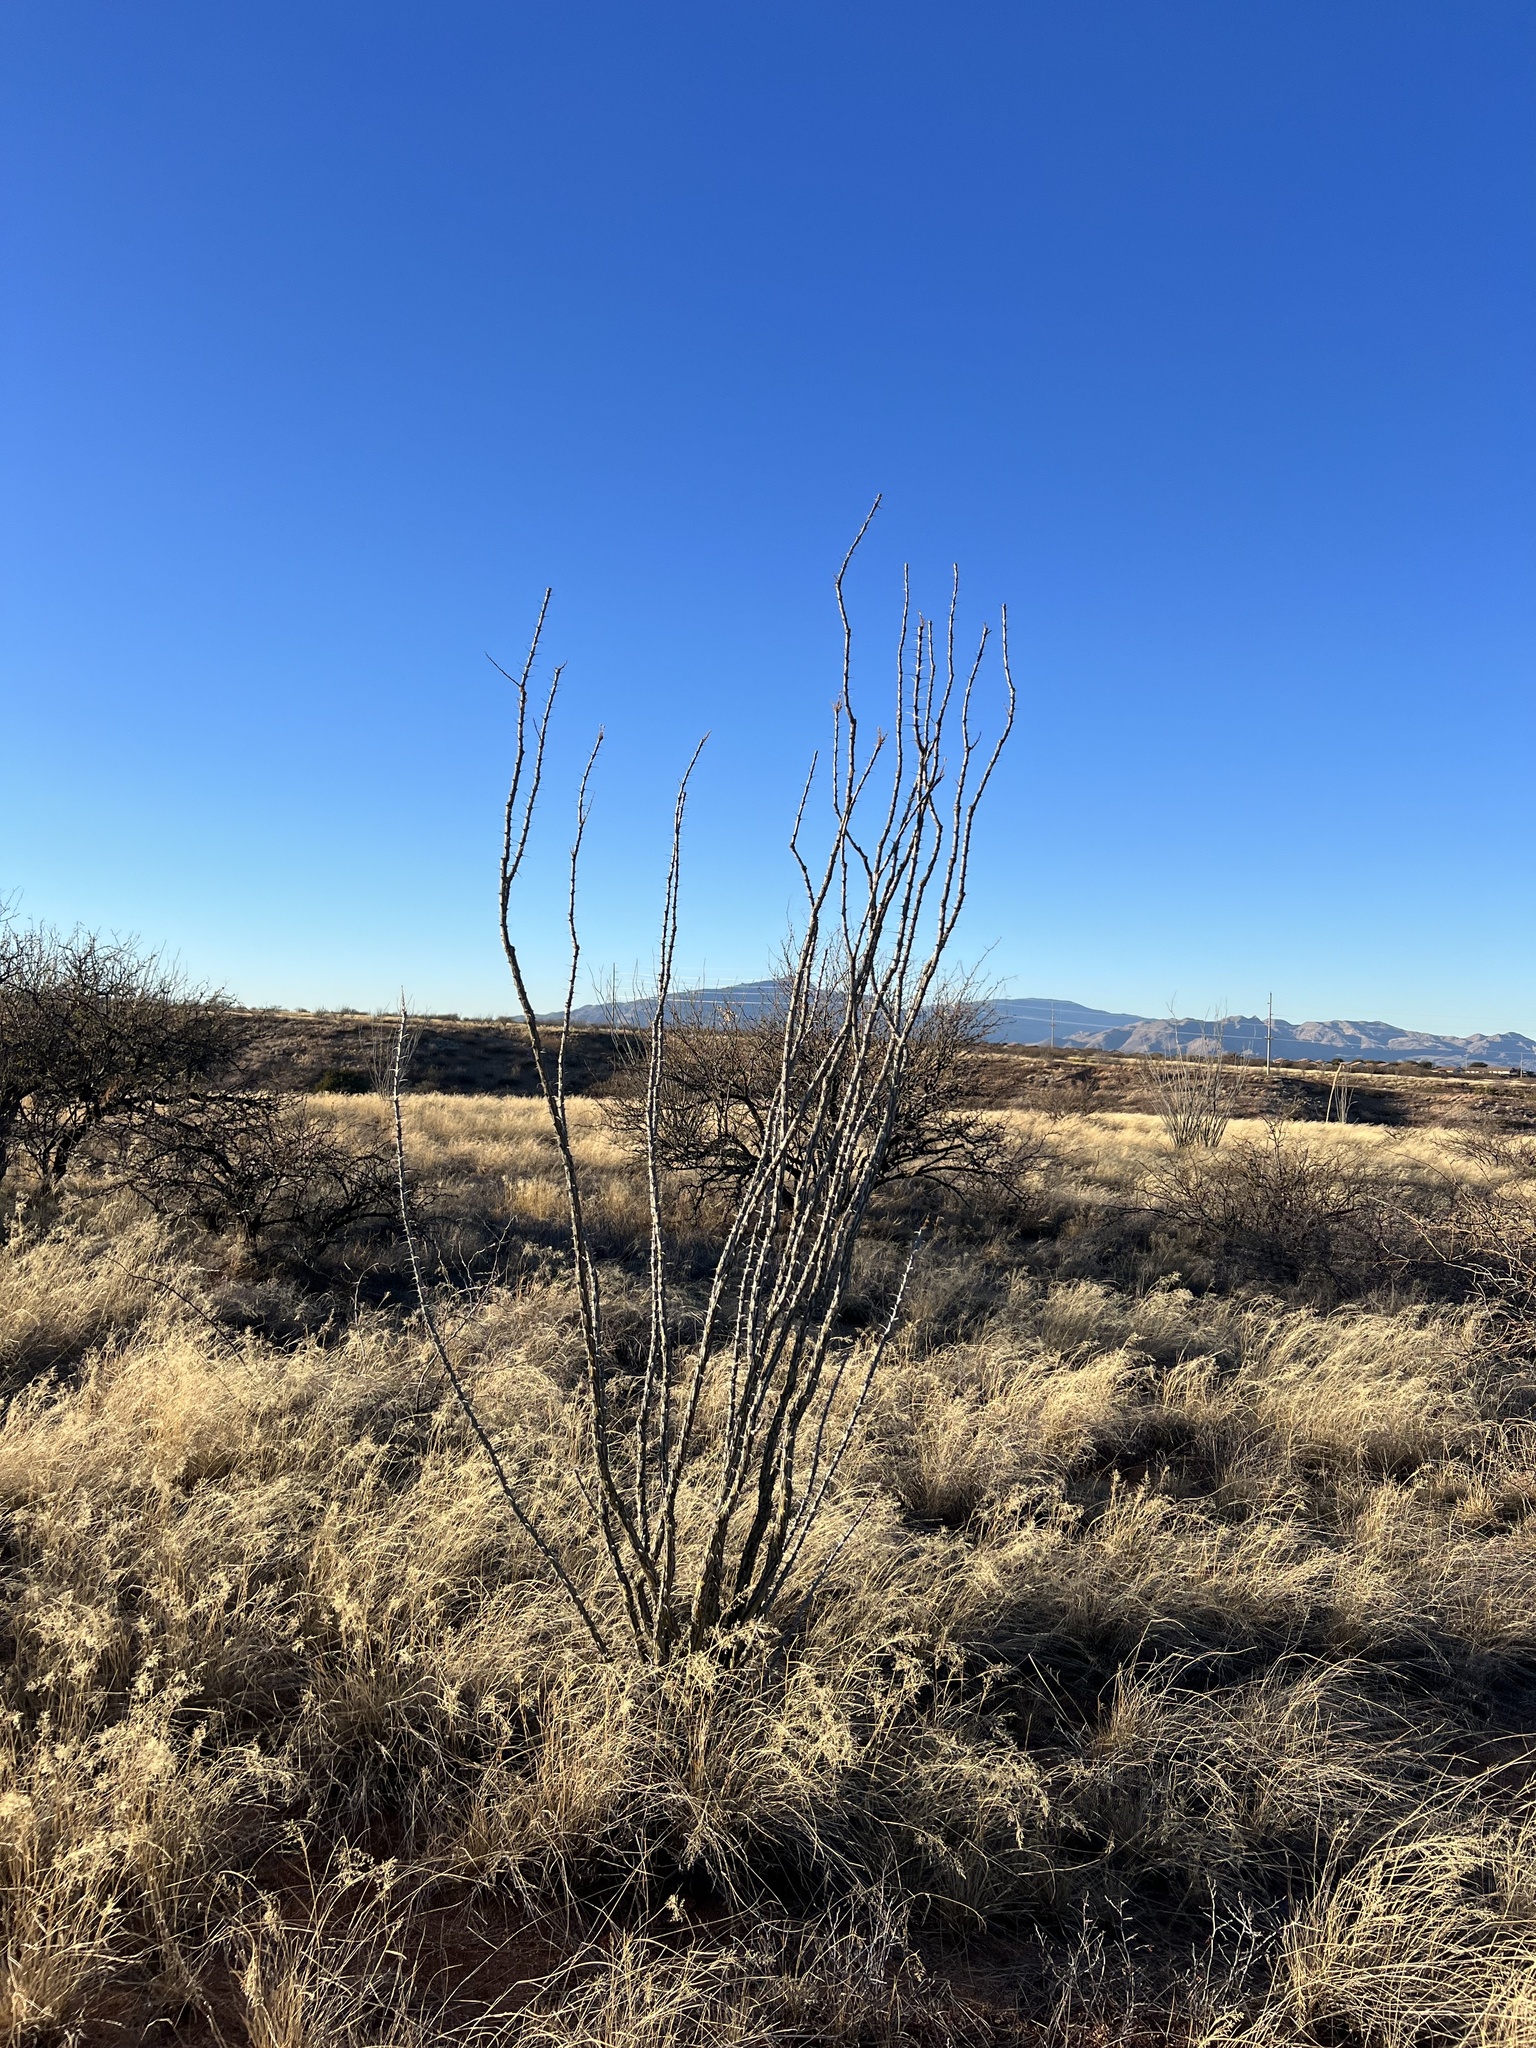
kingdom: Plantae
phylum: Tracheophyta
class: Magnoliopsida
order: Ericales
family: Fouquieriaceae
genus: Fouquieria
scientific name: Fouquieria splendens
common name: Vine-cactus
